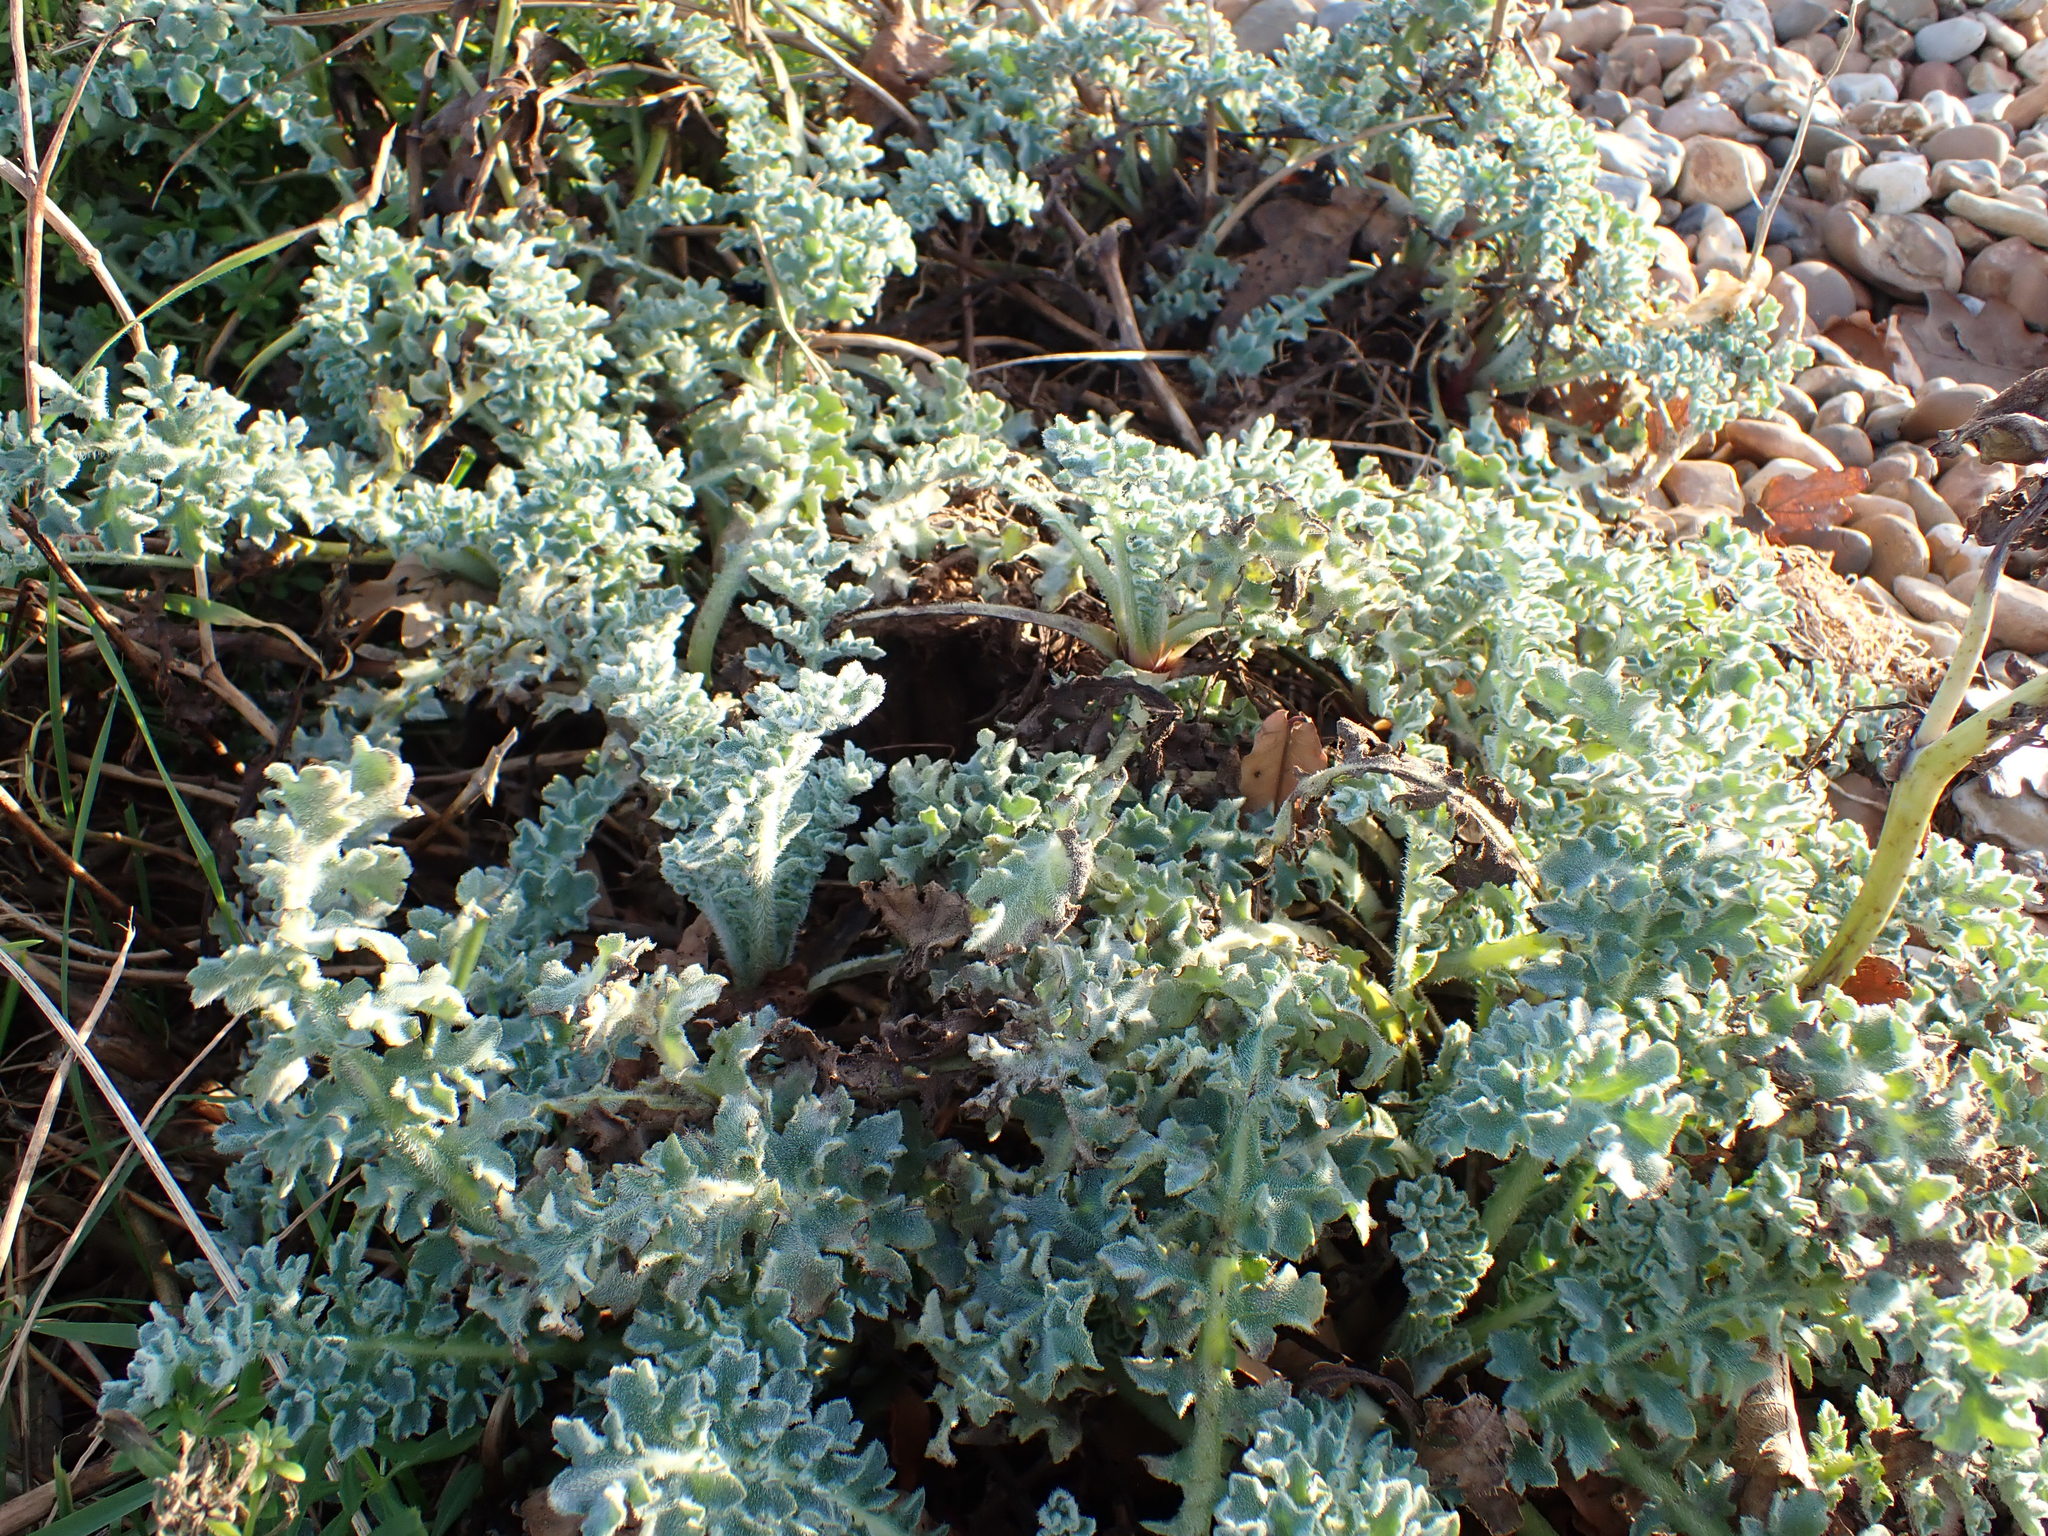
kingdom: Plantae
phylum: Tracheophyta
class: Magnoliopsida
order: Ranunculales
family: Papaveraceae
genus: Glaucium
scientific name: Glaucium flavum
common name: Yellow horned-poppy
